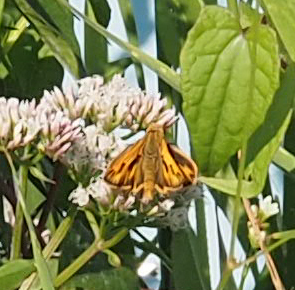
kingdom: Animalia
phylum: Arthropoda
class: Insecta
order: Lepidoptera
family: Hesperiidae
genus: Hylephila
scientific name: Hylephila phyleus
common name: Fiery skipper
